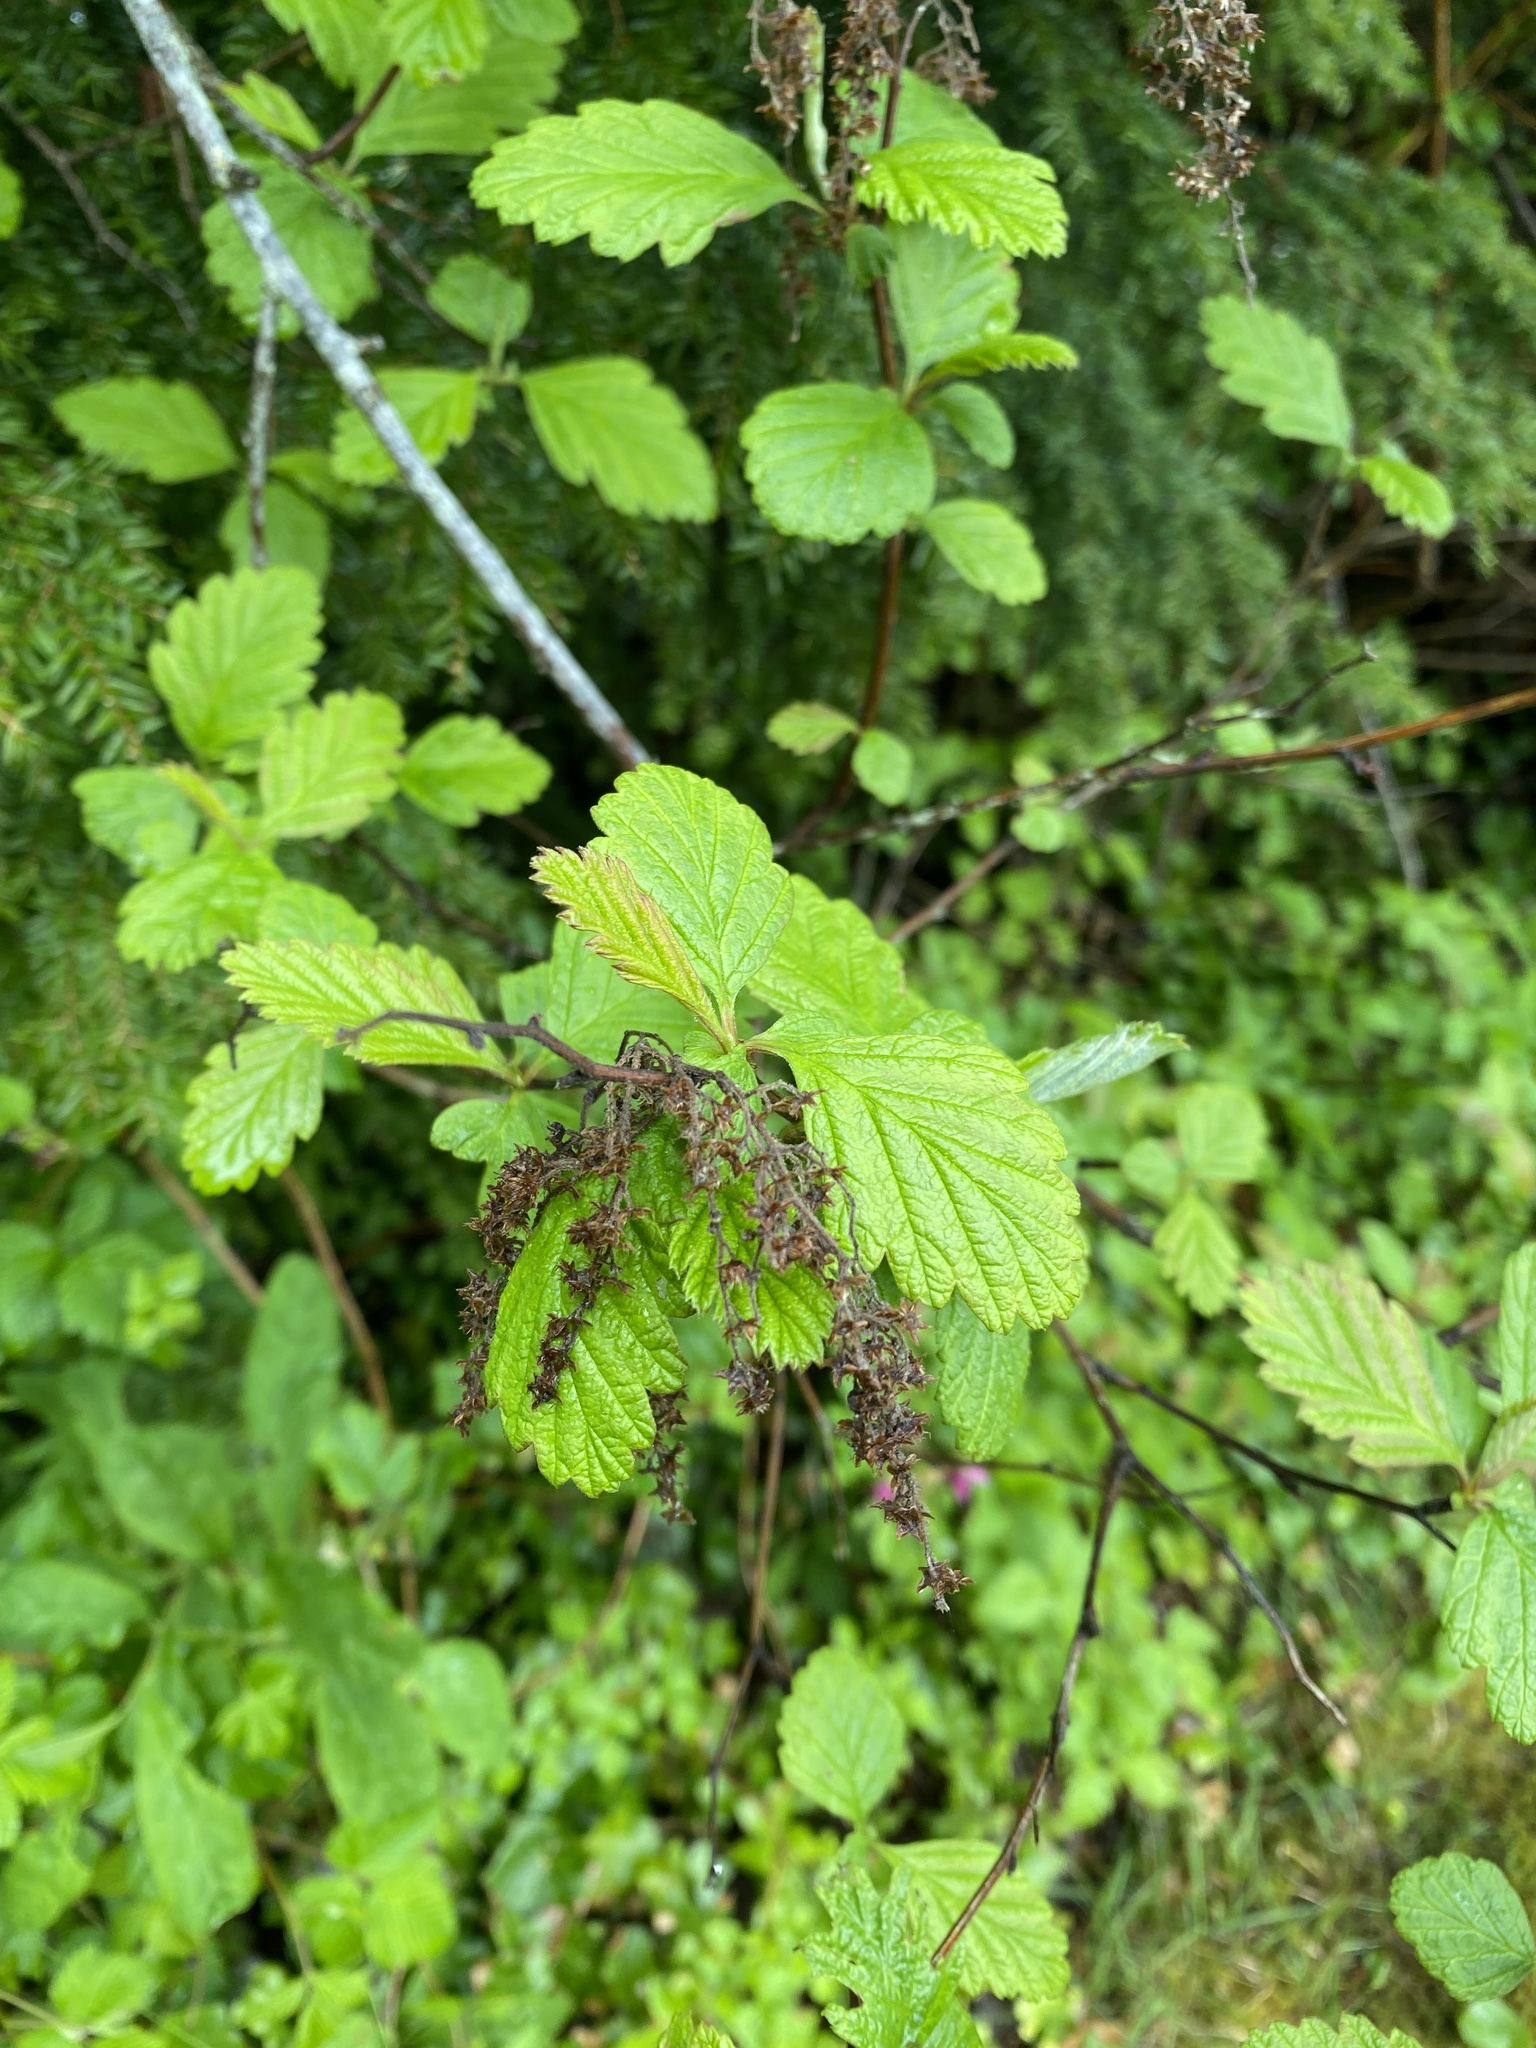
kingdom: Plantae
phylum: Tracheophyta
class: Magnoliopsida
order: Rosales
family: Rosaceae
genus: Holodiscus
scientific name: Holodiscus discolor
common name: Oceanspray
